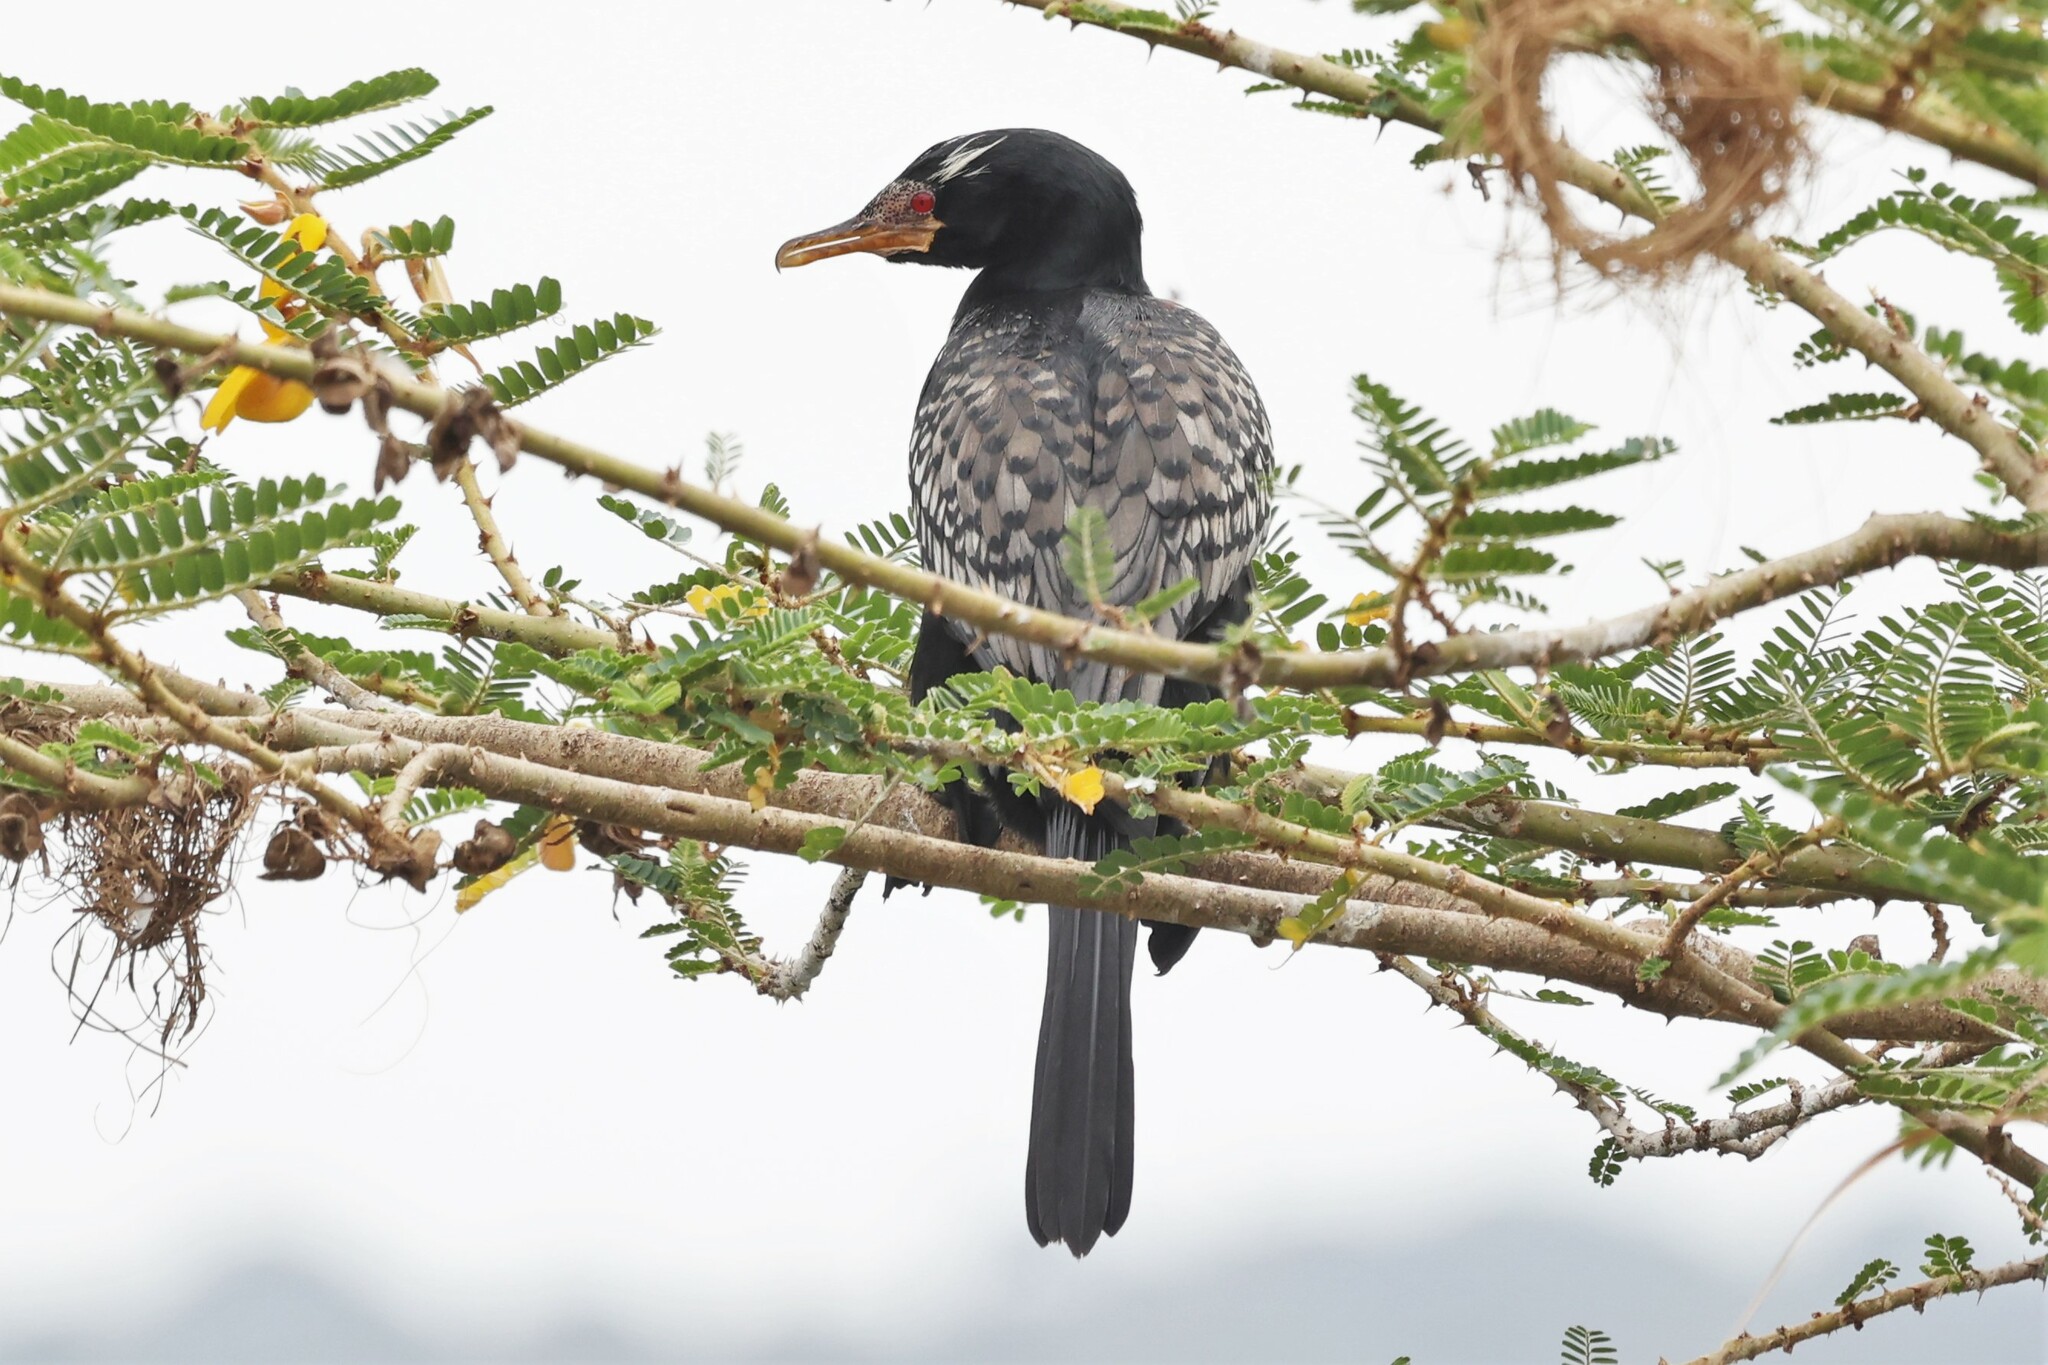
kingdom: Animalia
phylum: Chordata
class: Aves
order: Suliformes
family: Phalacrocoracidae
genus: Microcarbo
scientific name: Microcarbo africanus
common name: Long-tailed cormorant
